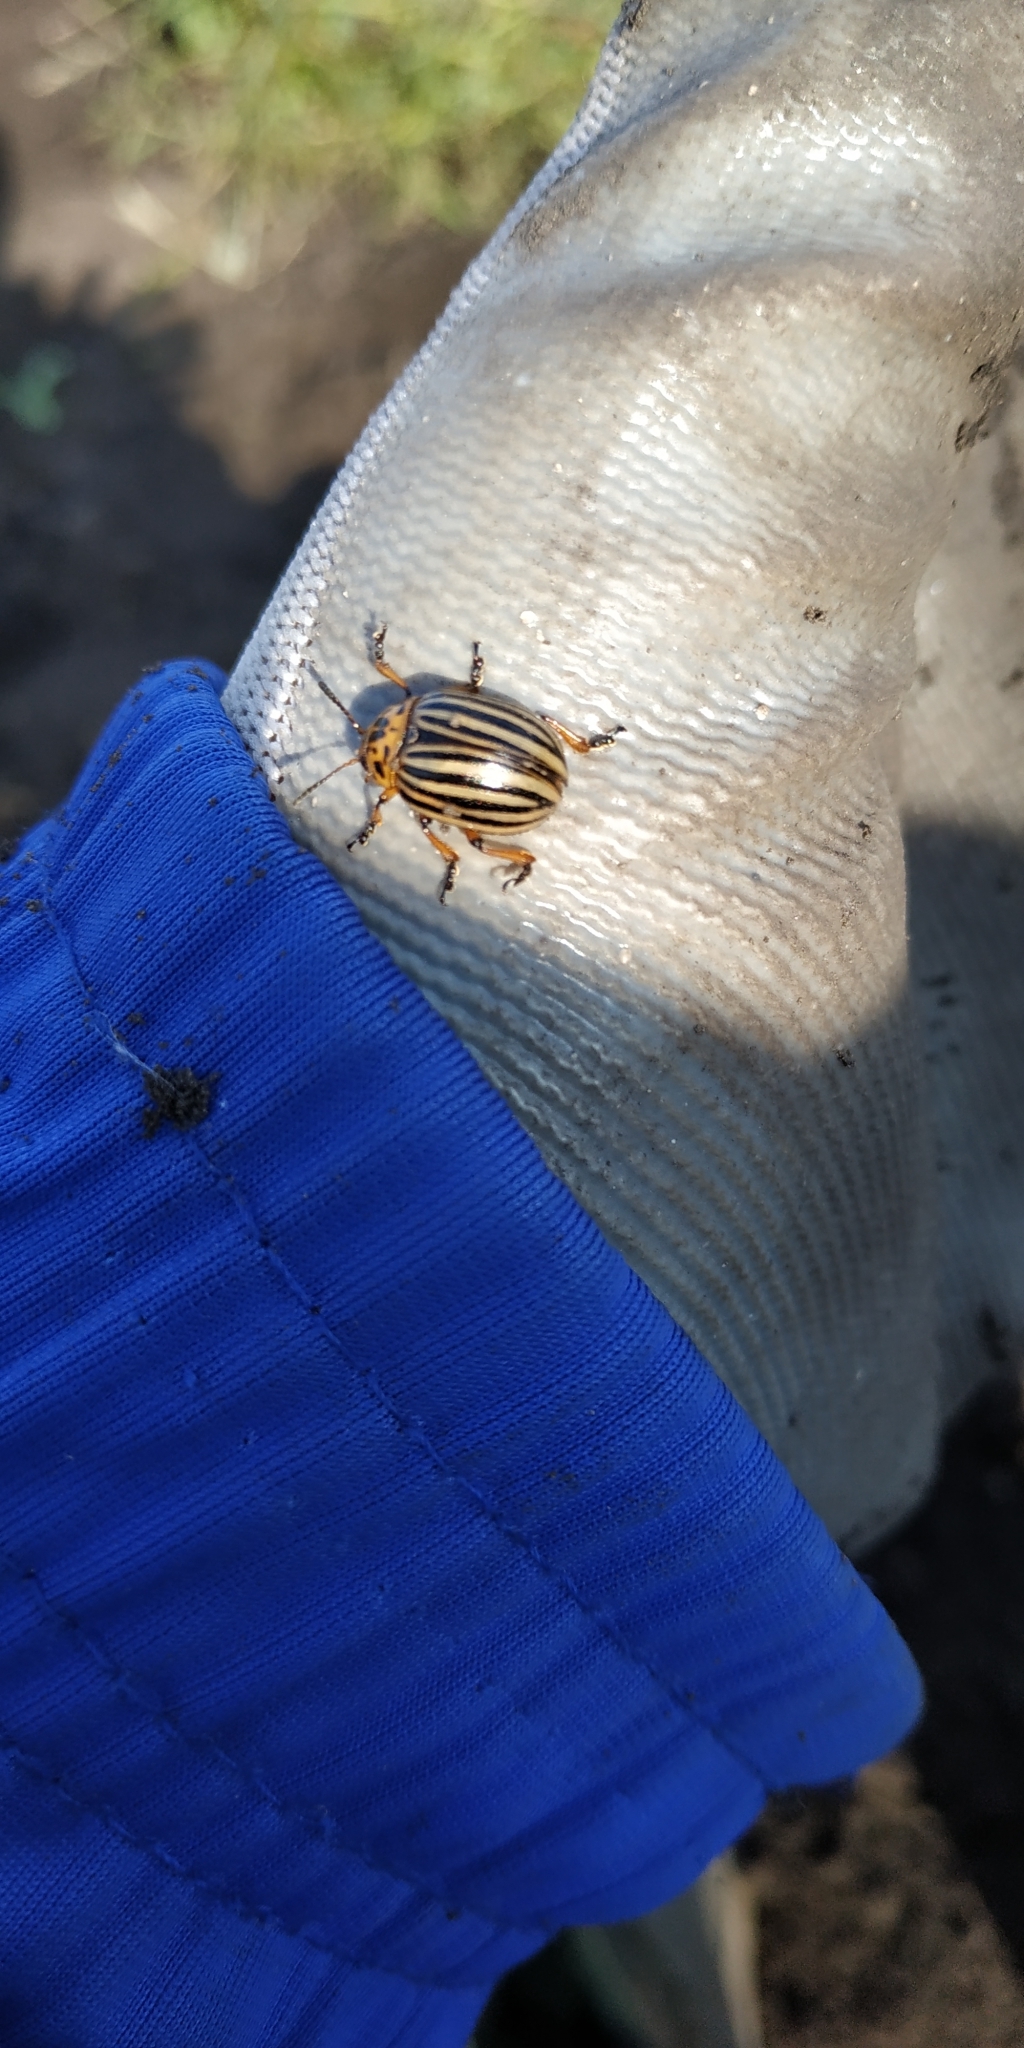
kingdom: Animalia
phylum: Arthropoda
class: Insecta
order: Coleoptera
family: Chrysomelidae
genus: Leptinotarsa
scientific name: Leptinotarsa decemlineata
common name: Colorado potato beetle
